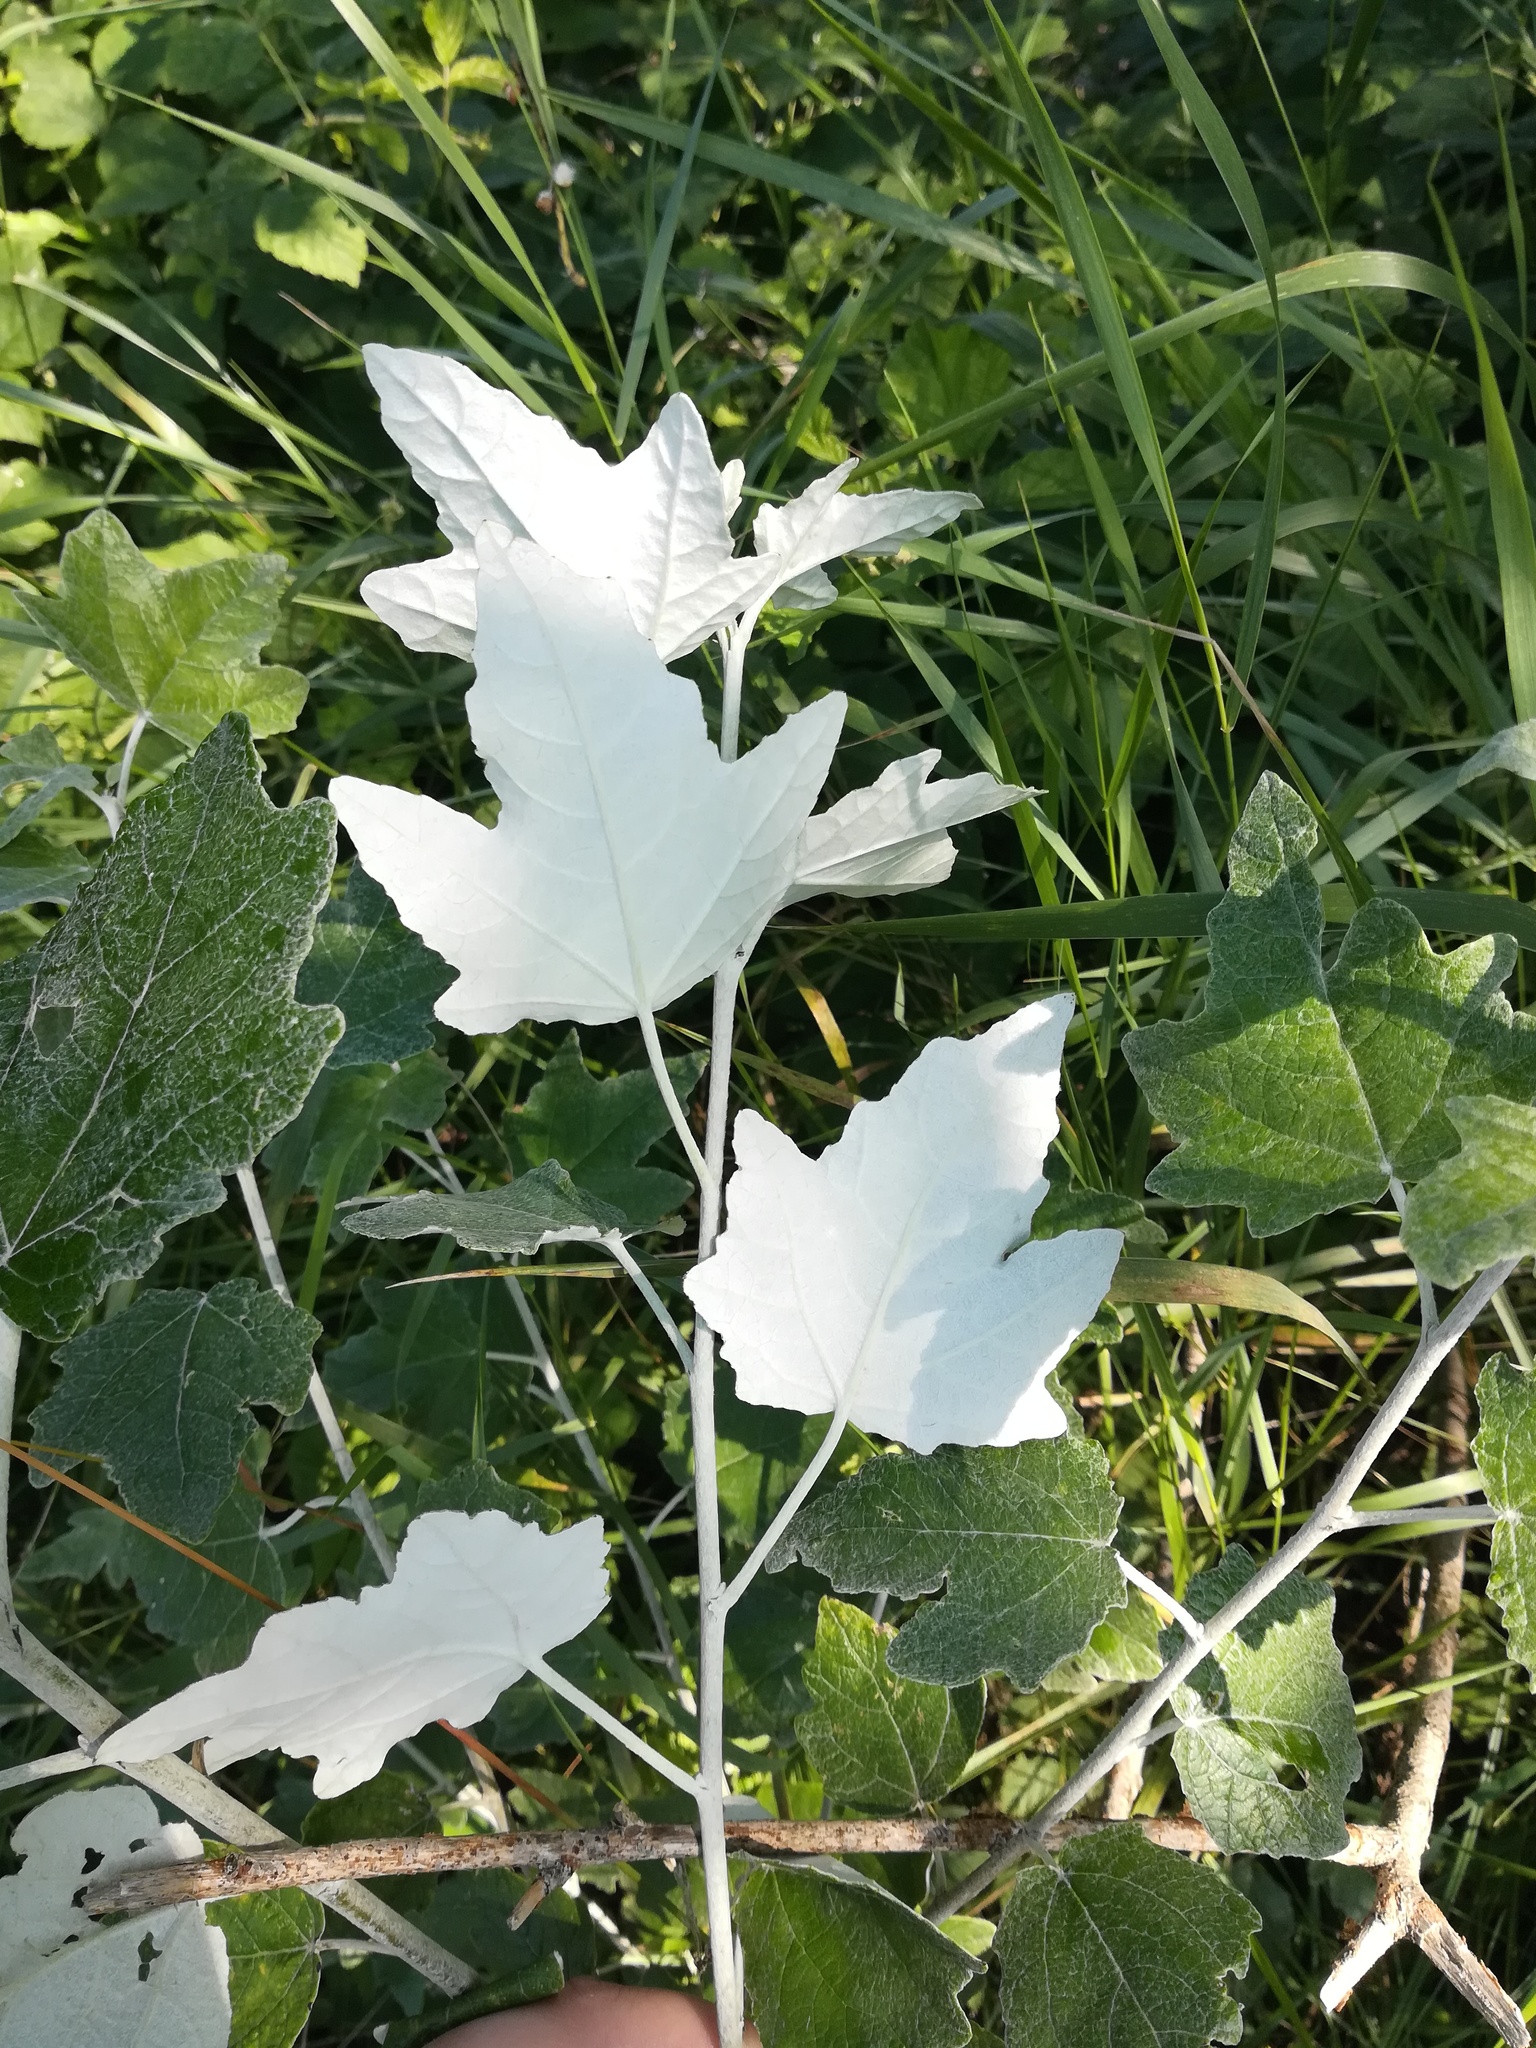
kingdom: Plantae
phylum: Tracheophyta
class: Magnoliopsida
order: Malpighiales
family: Salicaceae
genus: Populus
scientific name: Populus alba
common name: White poplar
